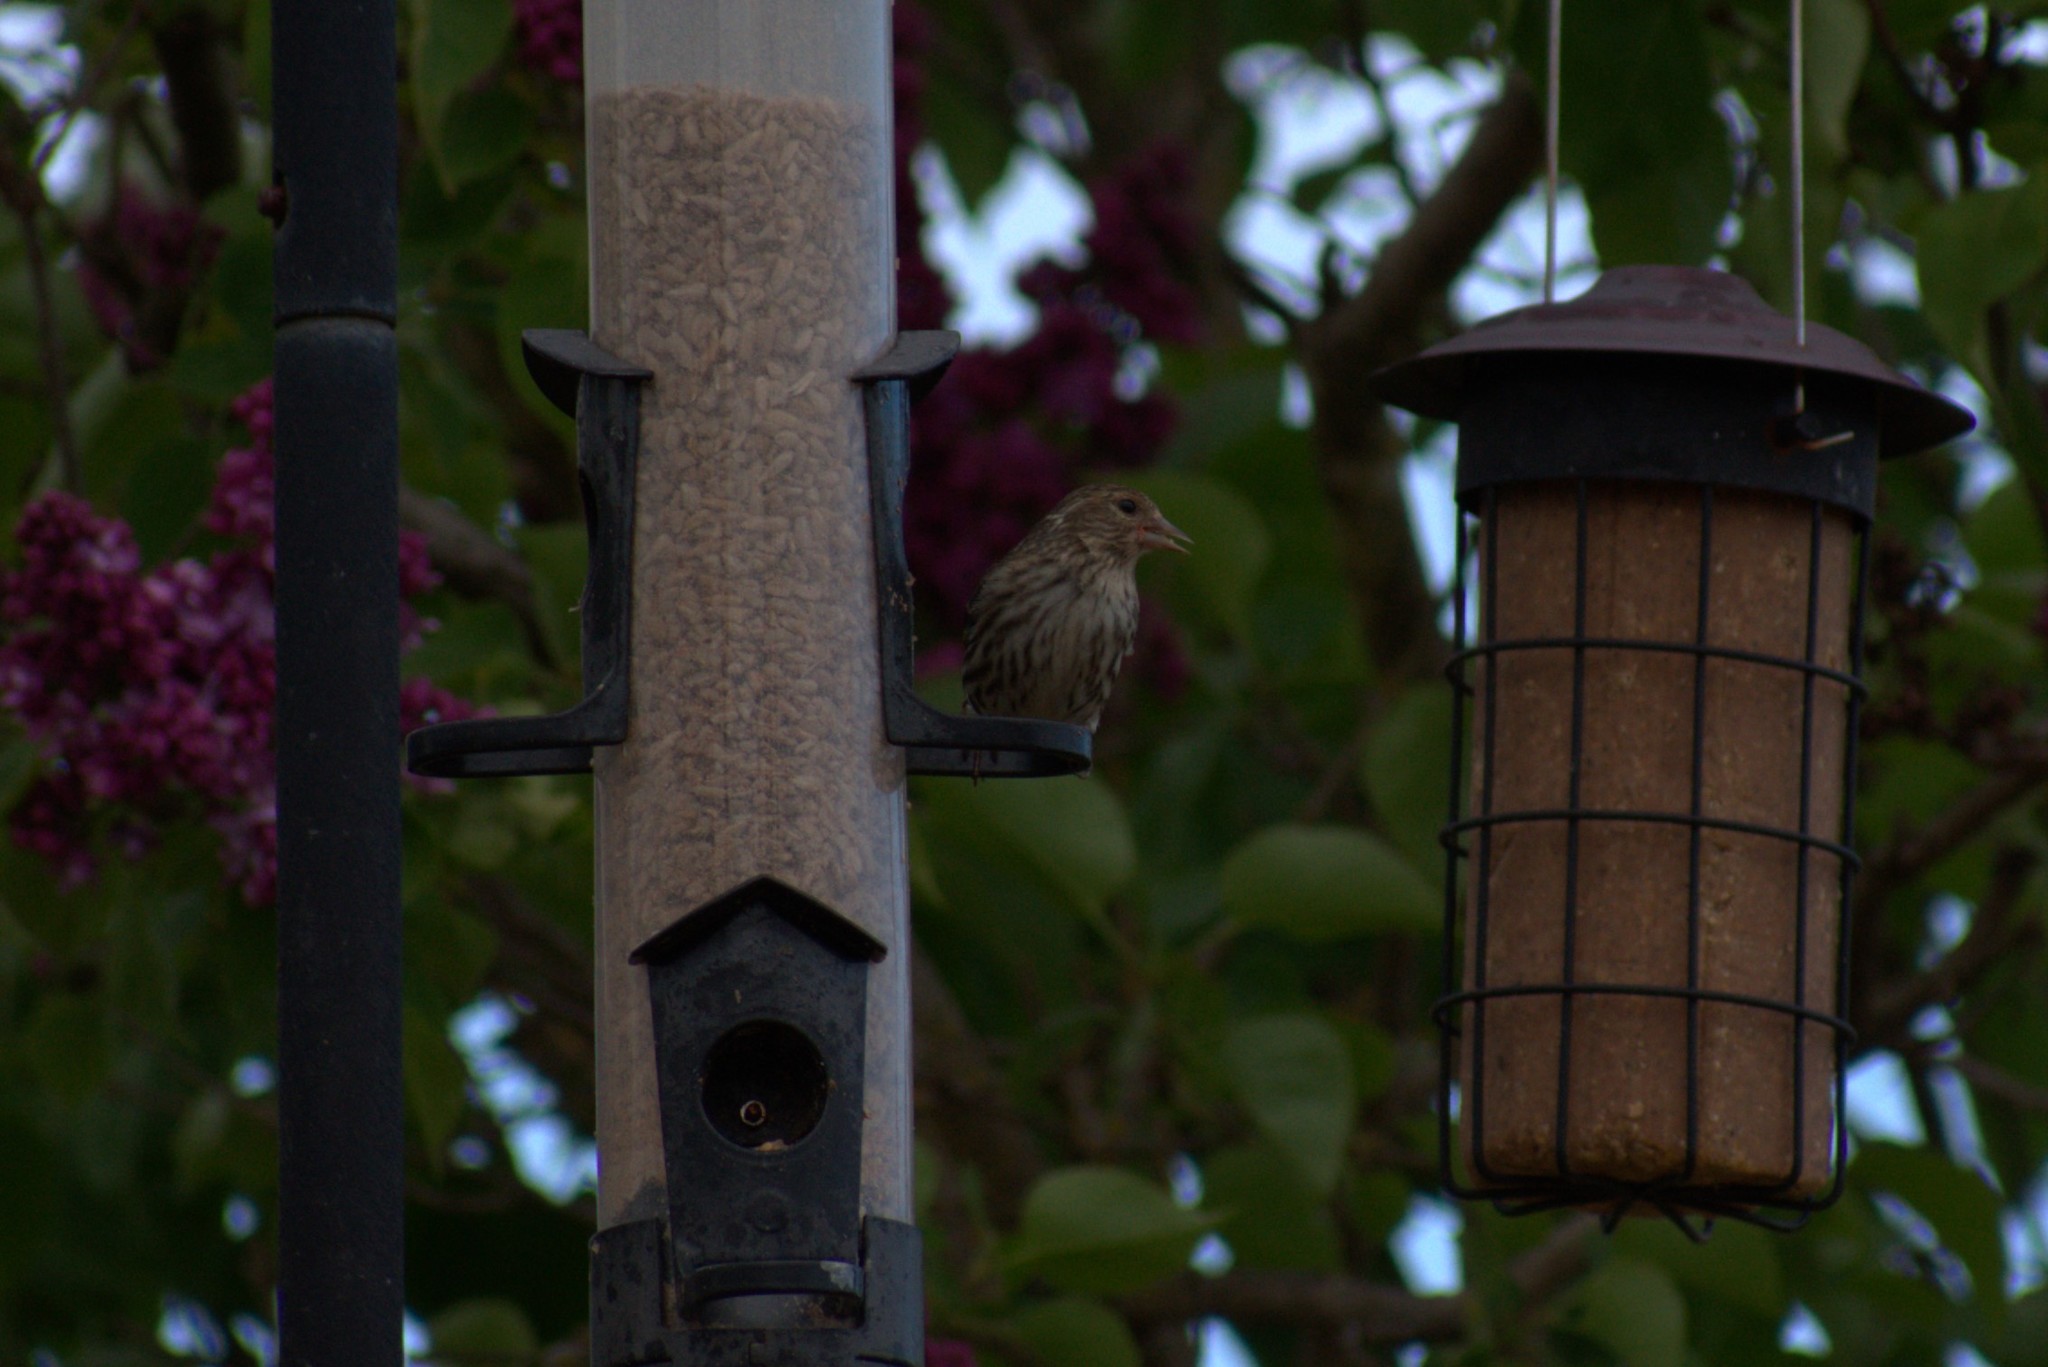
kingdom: Animalia
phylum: Chordata
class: Aves
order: Passeriformes
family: Fringillidae
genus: Spinus
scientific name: Spinus pinus
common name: Pine siskin
